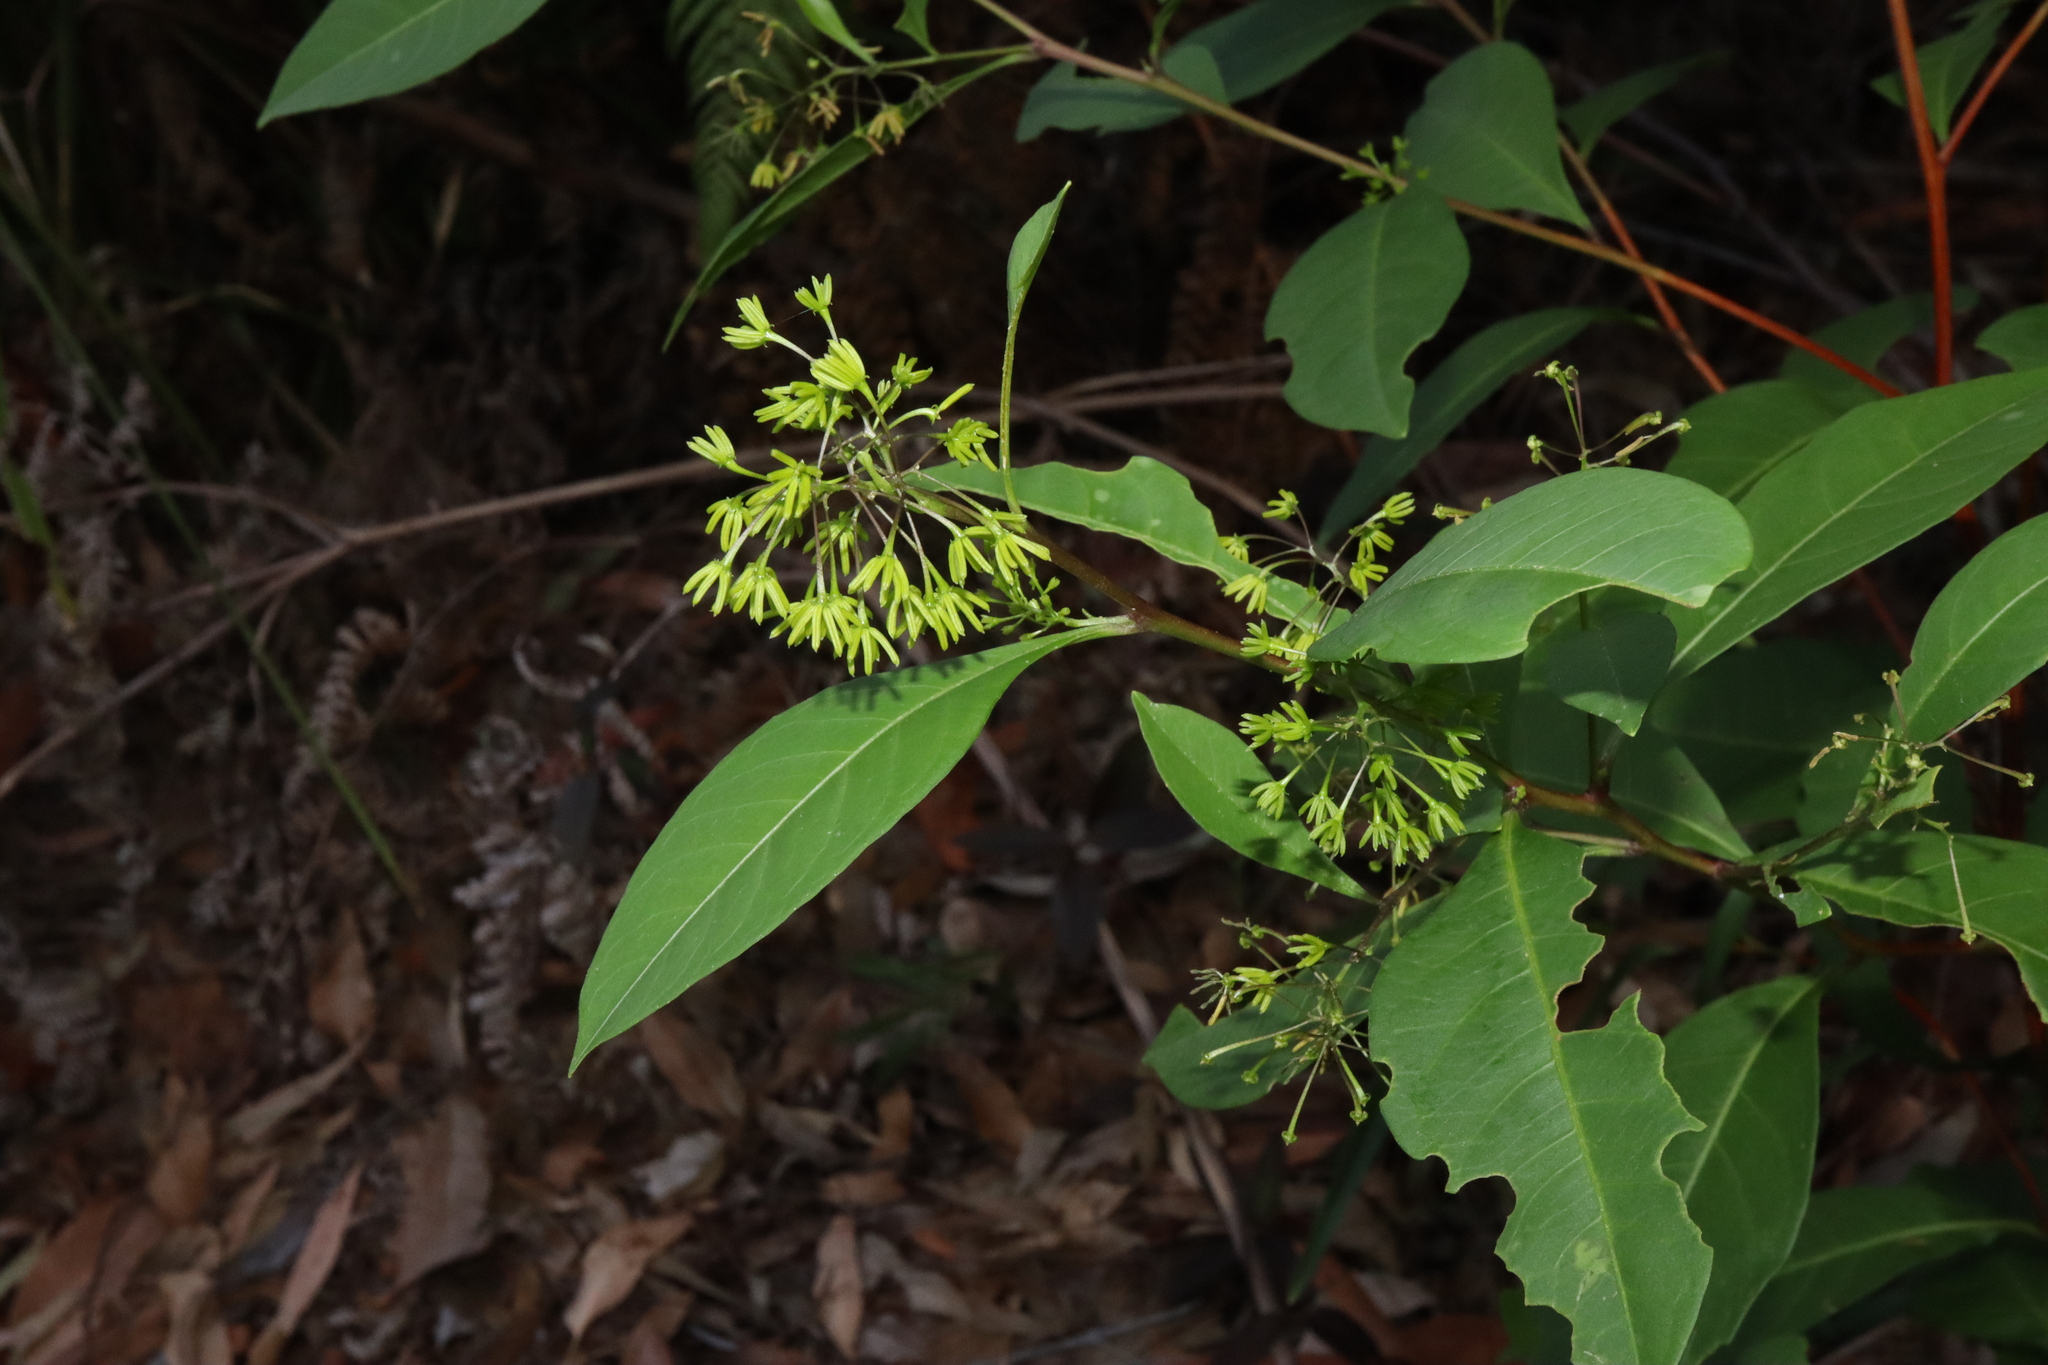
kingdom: Plantae
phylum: Tracheophyta
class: Magnoliopsida
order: Sapindales
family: Sapindaceae
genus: Dodonaea
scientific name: Dodonaea triquetra
